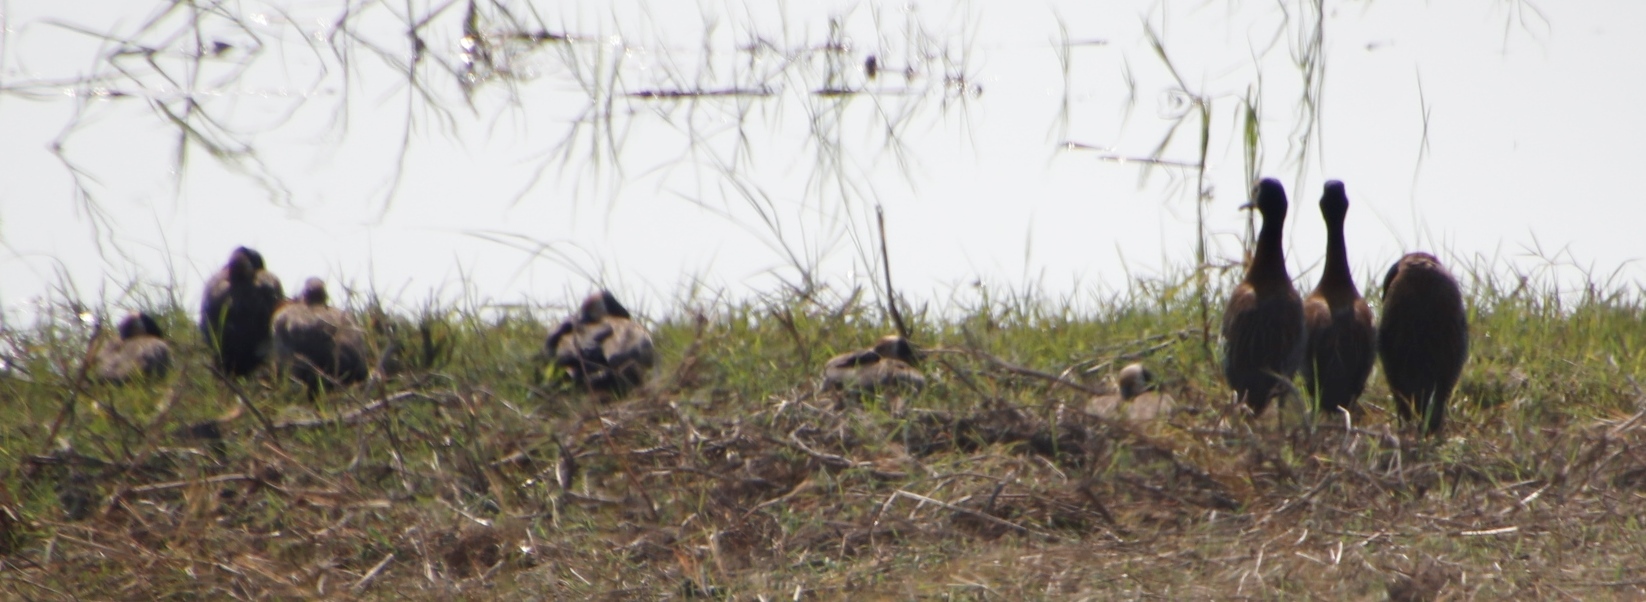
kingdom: Animalia
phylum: Chordata
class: Aves
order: Anseriformes
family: Anatidae
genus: Dendrocygna
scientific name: Dendrocygna viduata
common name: White-faced whistling duck
